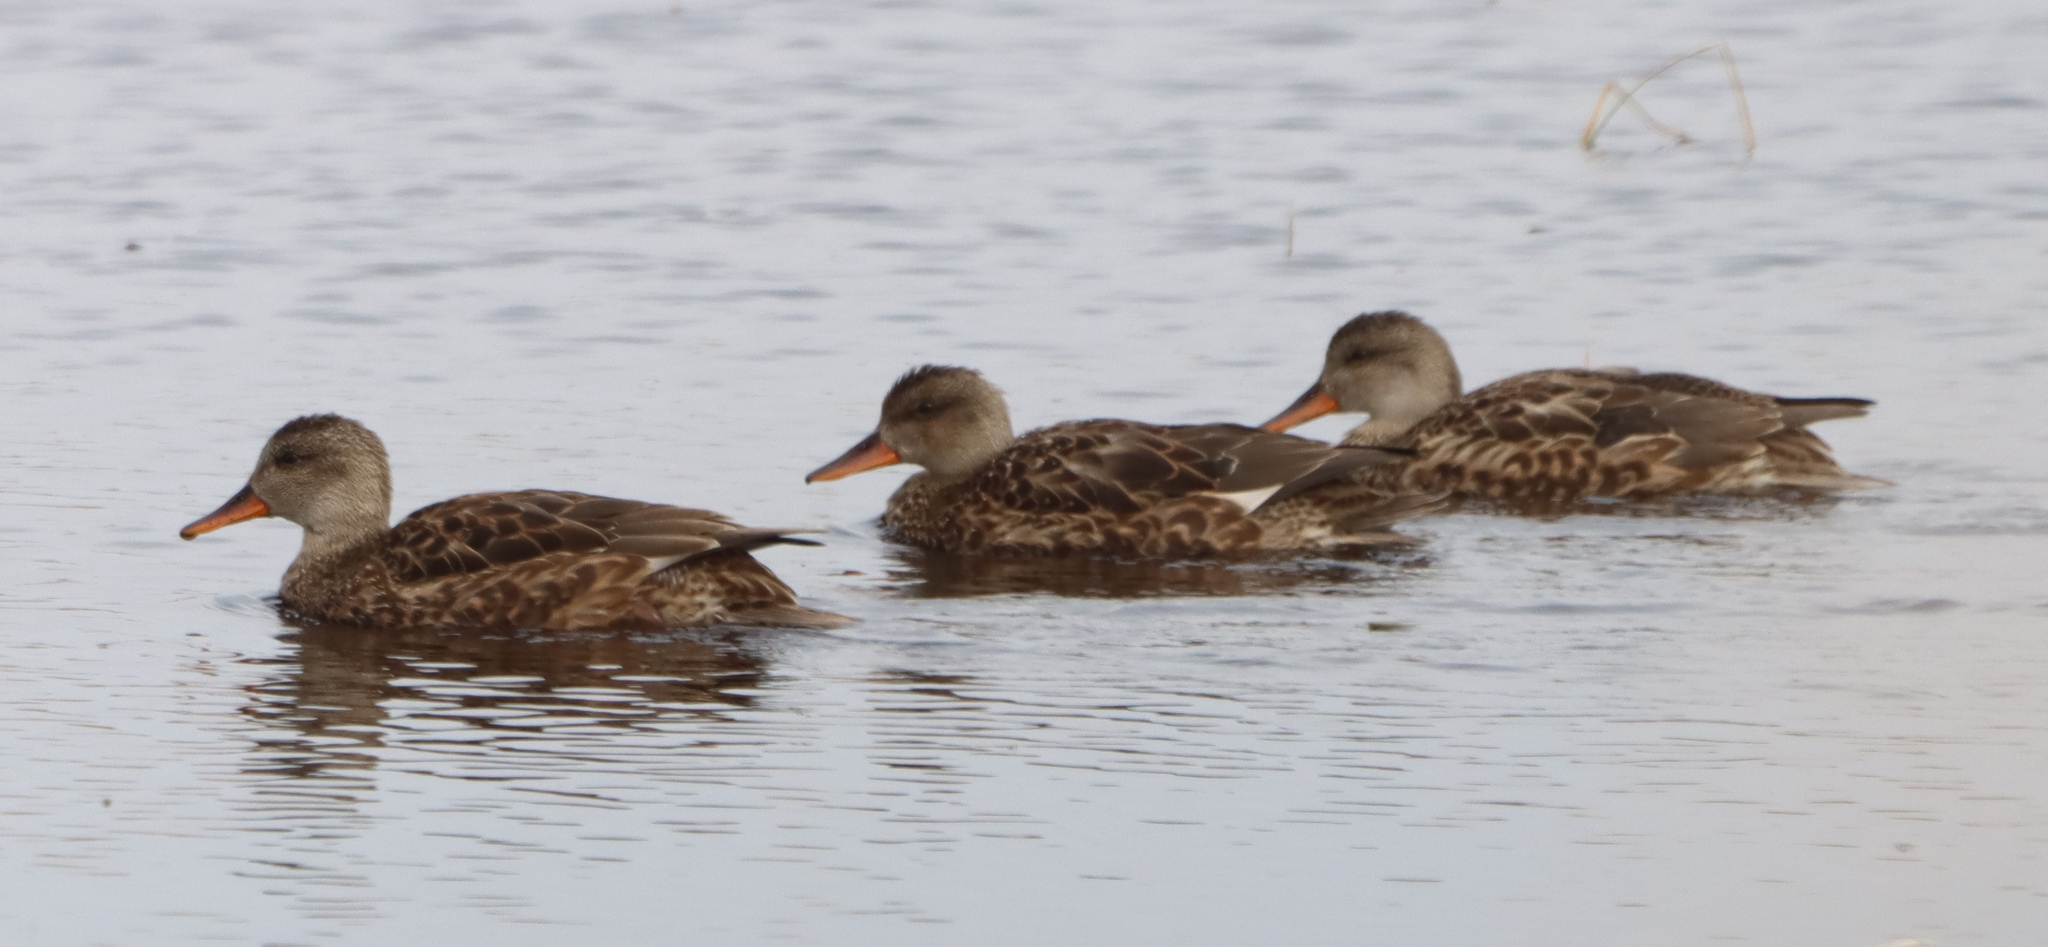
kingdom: Animalia
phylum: Chordata
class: Aves
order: Anseriformes
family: Anatidae
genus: Mareca
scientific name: Mareca strepera
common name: Gadwall
